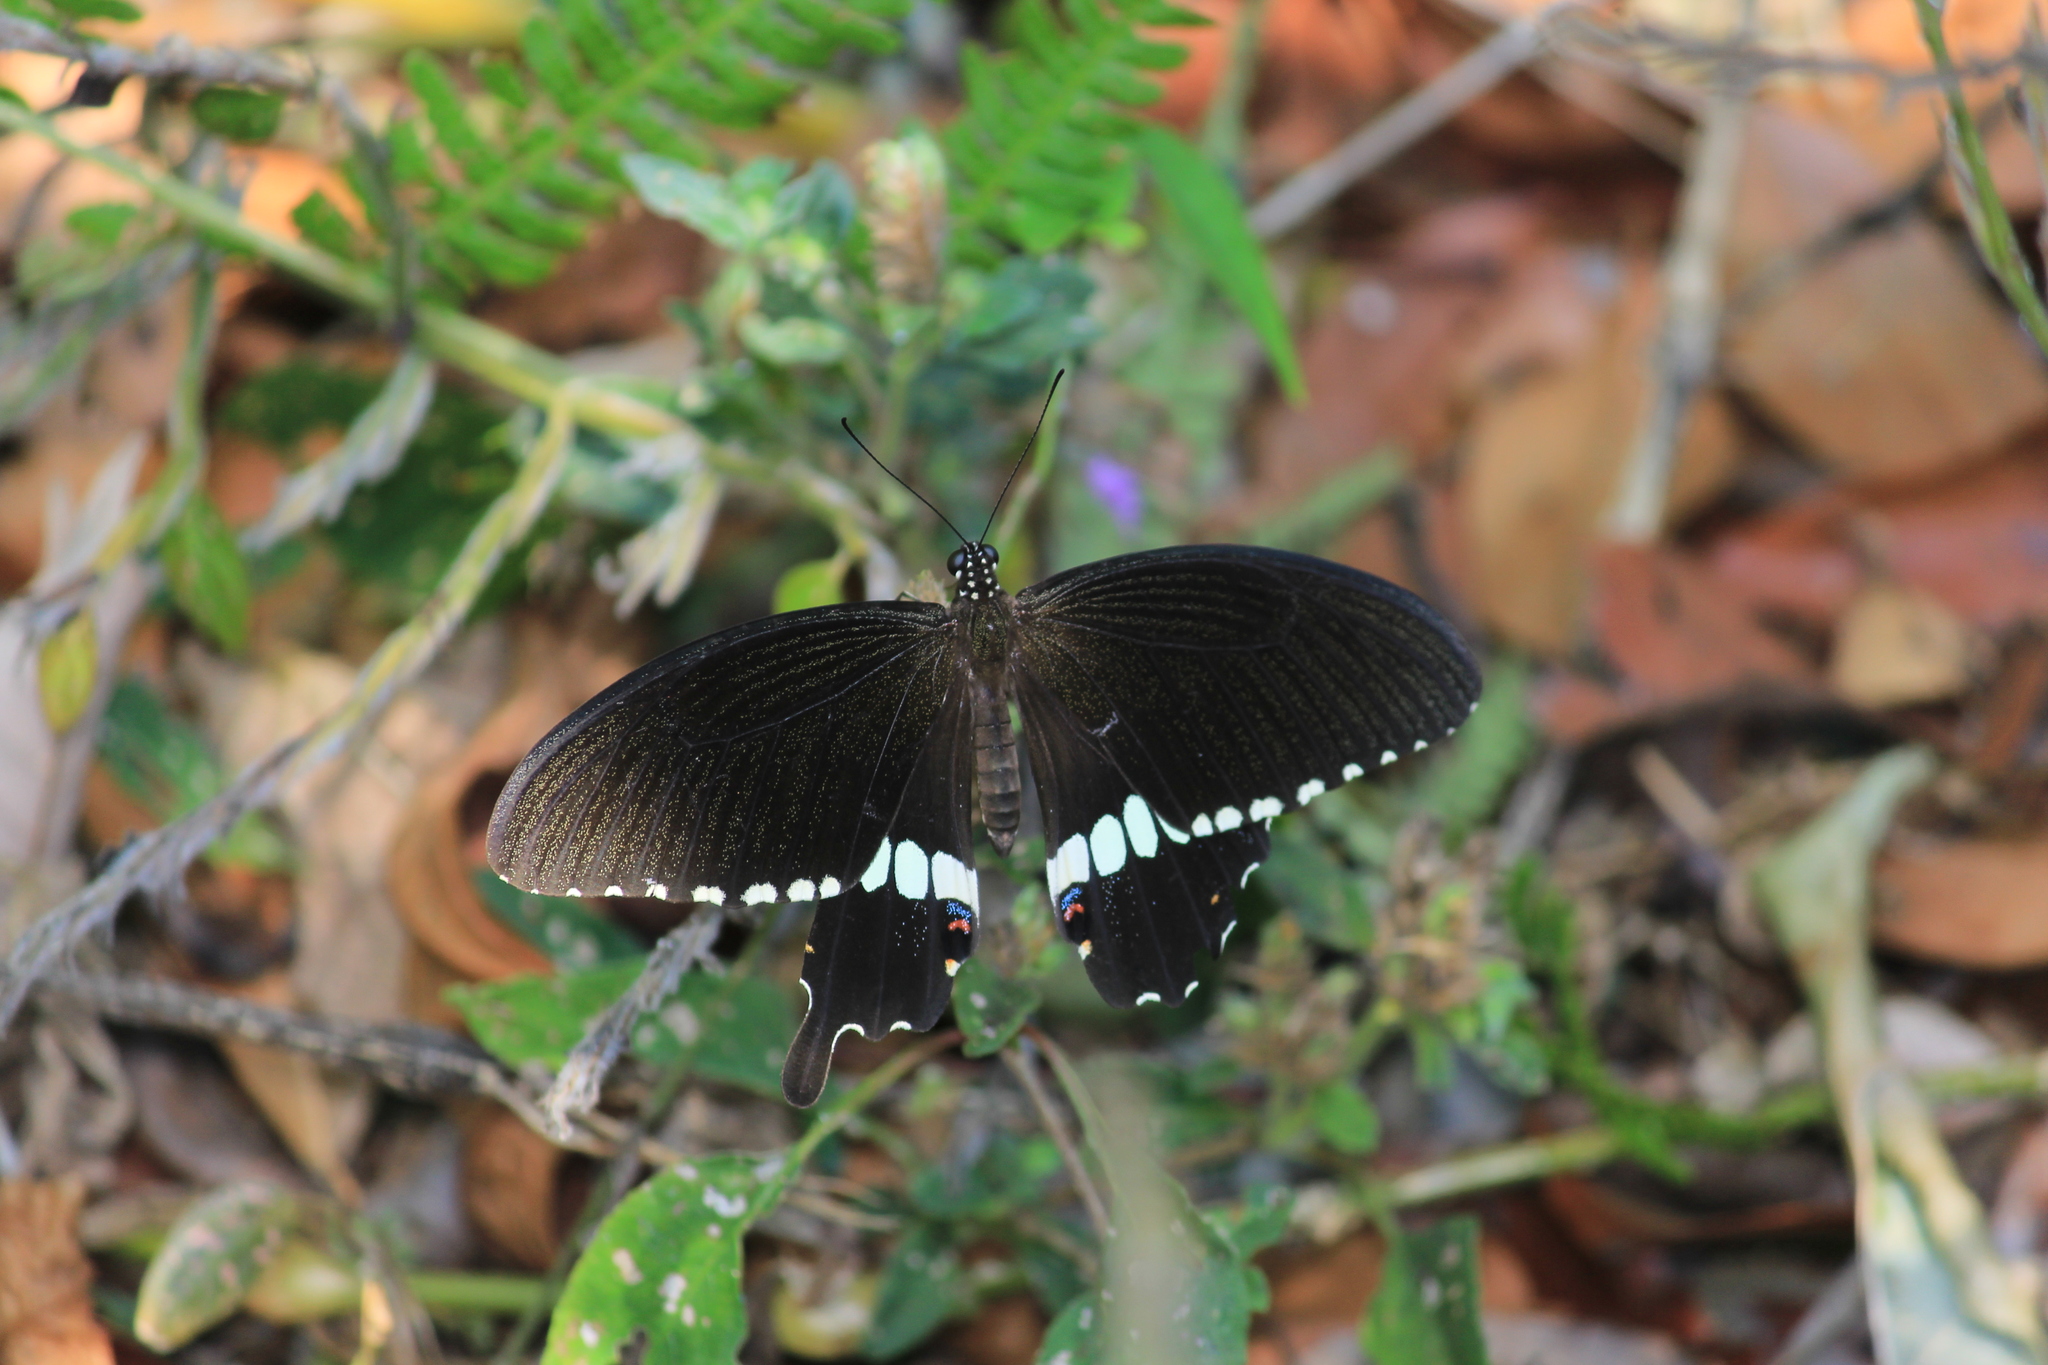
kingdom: Animalia
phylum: Arthropoda
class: Insecta
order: Lepidoptera
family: Papilionidae
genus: Papilio
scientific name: Papilio polytes
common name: Common mormon
